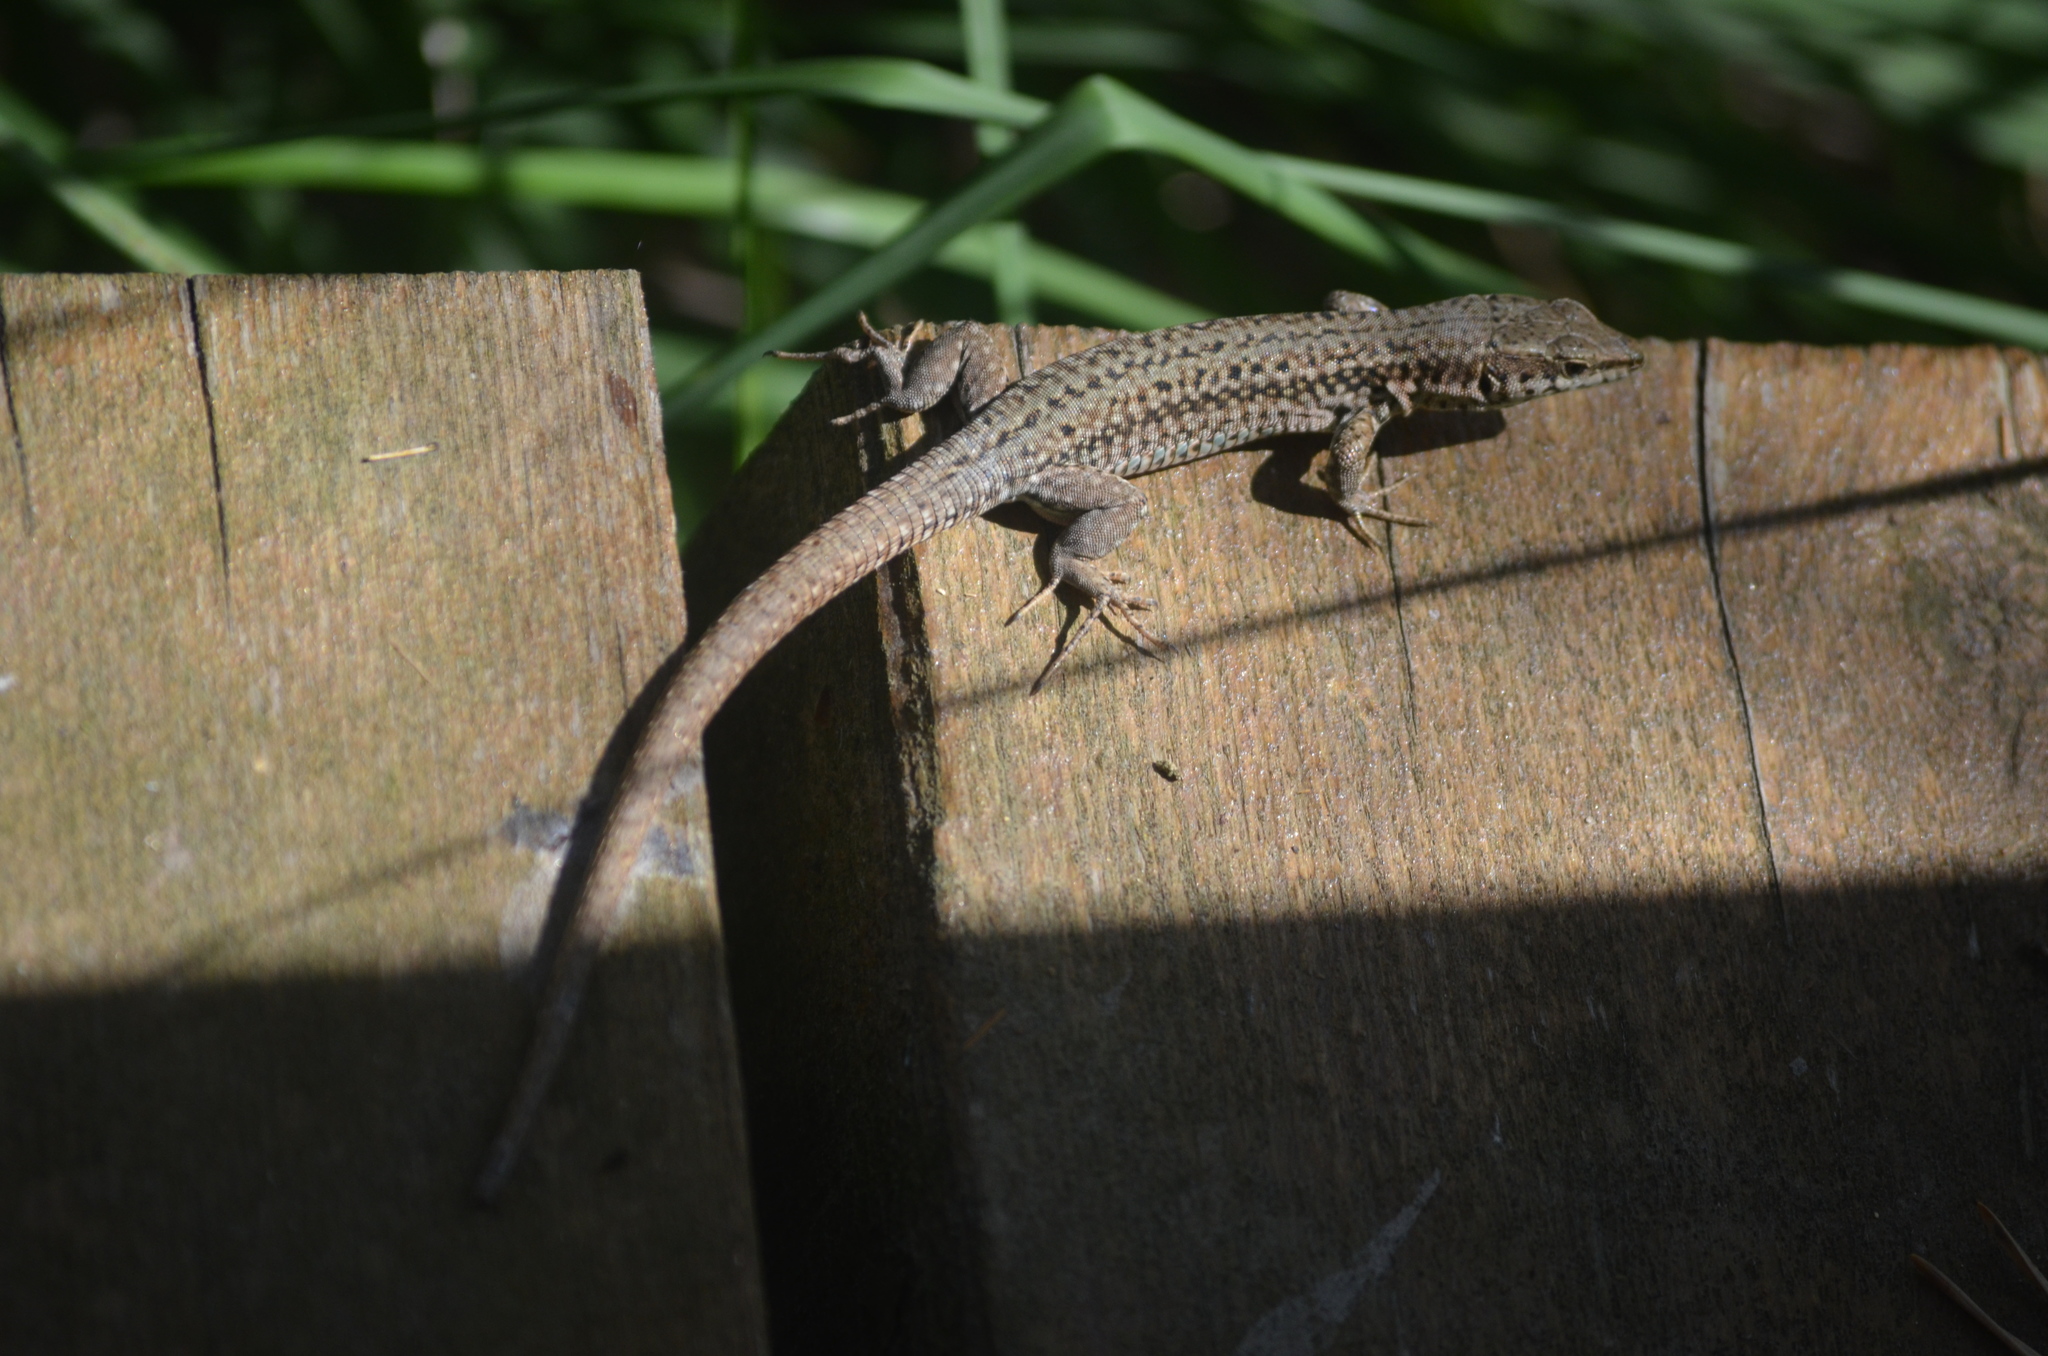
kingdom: Animalia
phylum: Chordata
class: Squamata
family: Lacertidae
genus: Podarcis
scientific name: Podarcis muralis
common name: Common wall lizard
